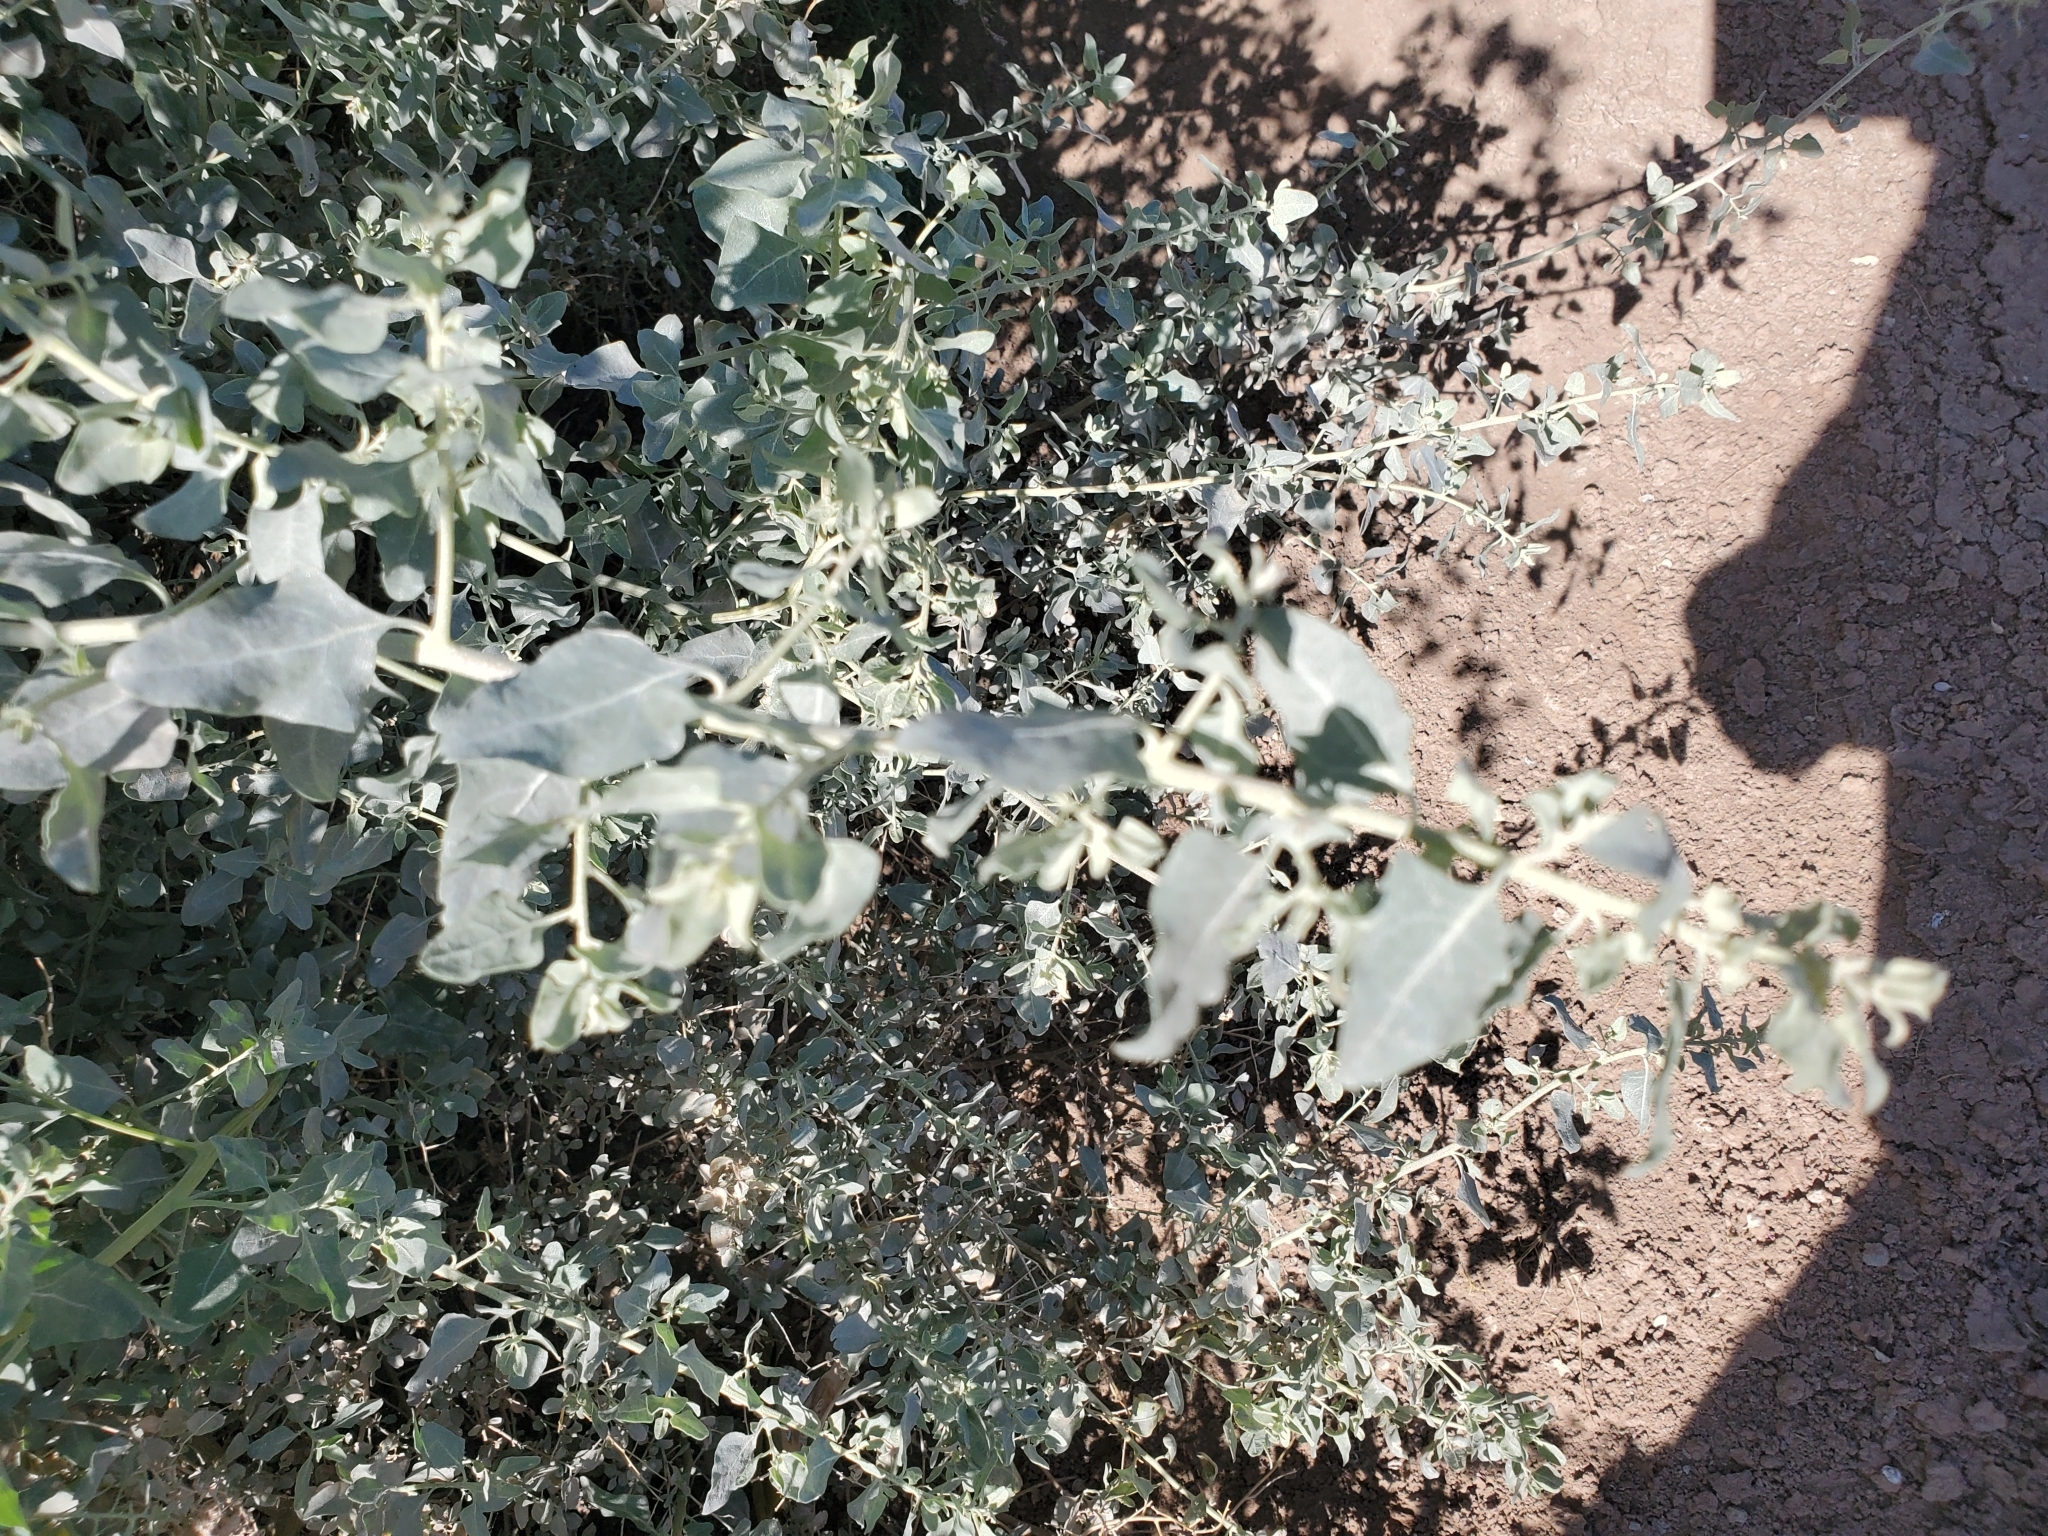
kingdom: Plantae
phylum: Tracheophyta
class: Magnoliopsida
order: Caryophyllales
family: Amaranthaceae
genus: Atriplex
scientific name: Atriplex lentiformis
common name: Big saltbush
